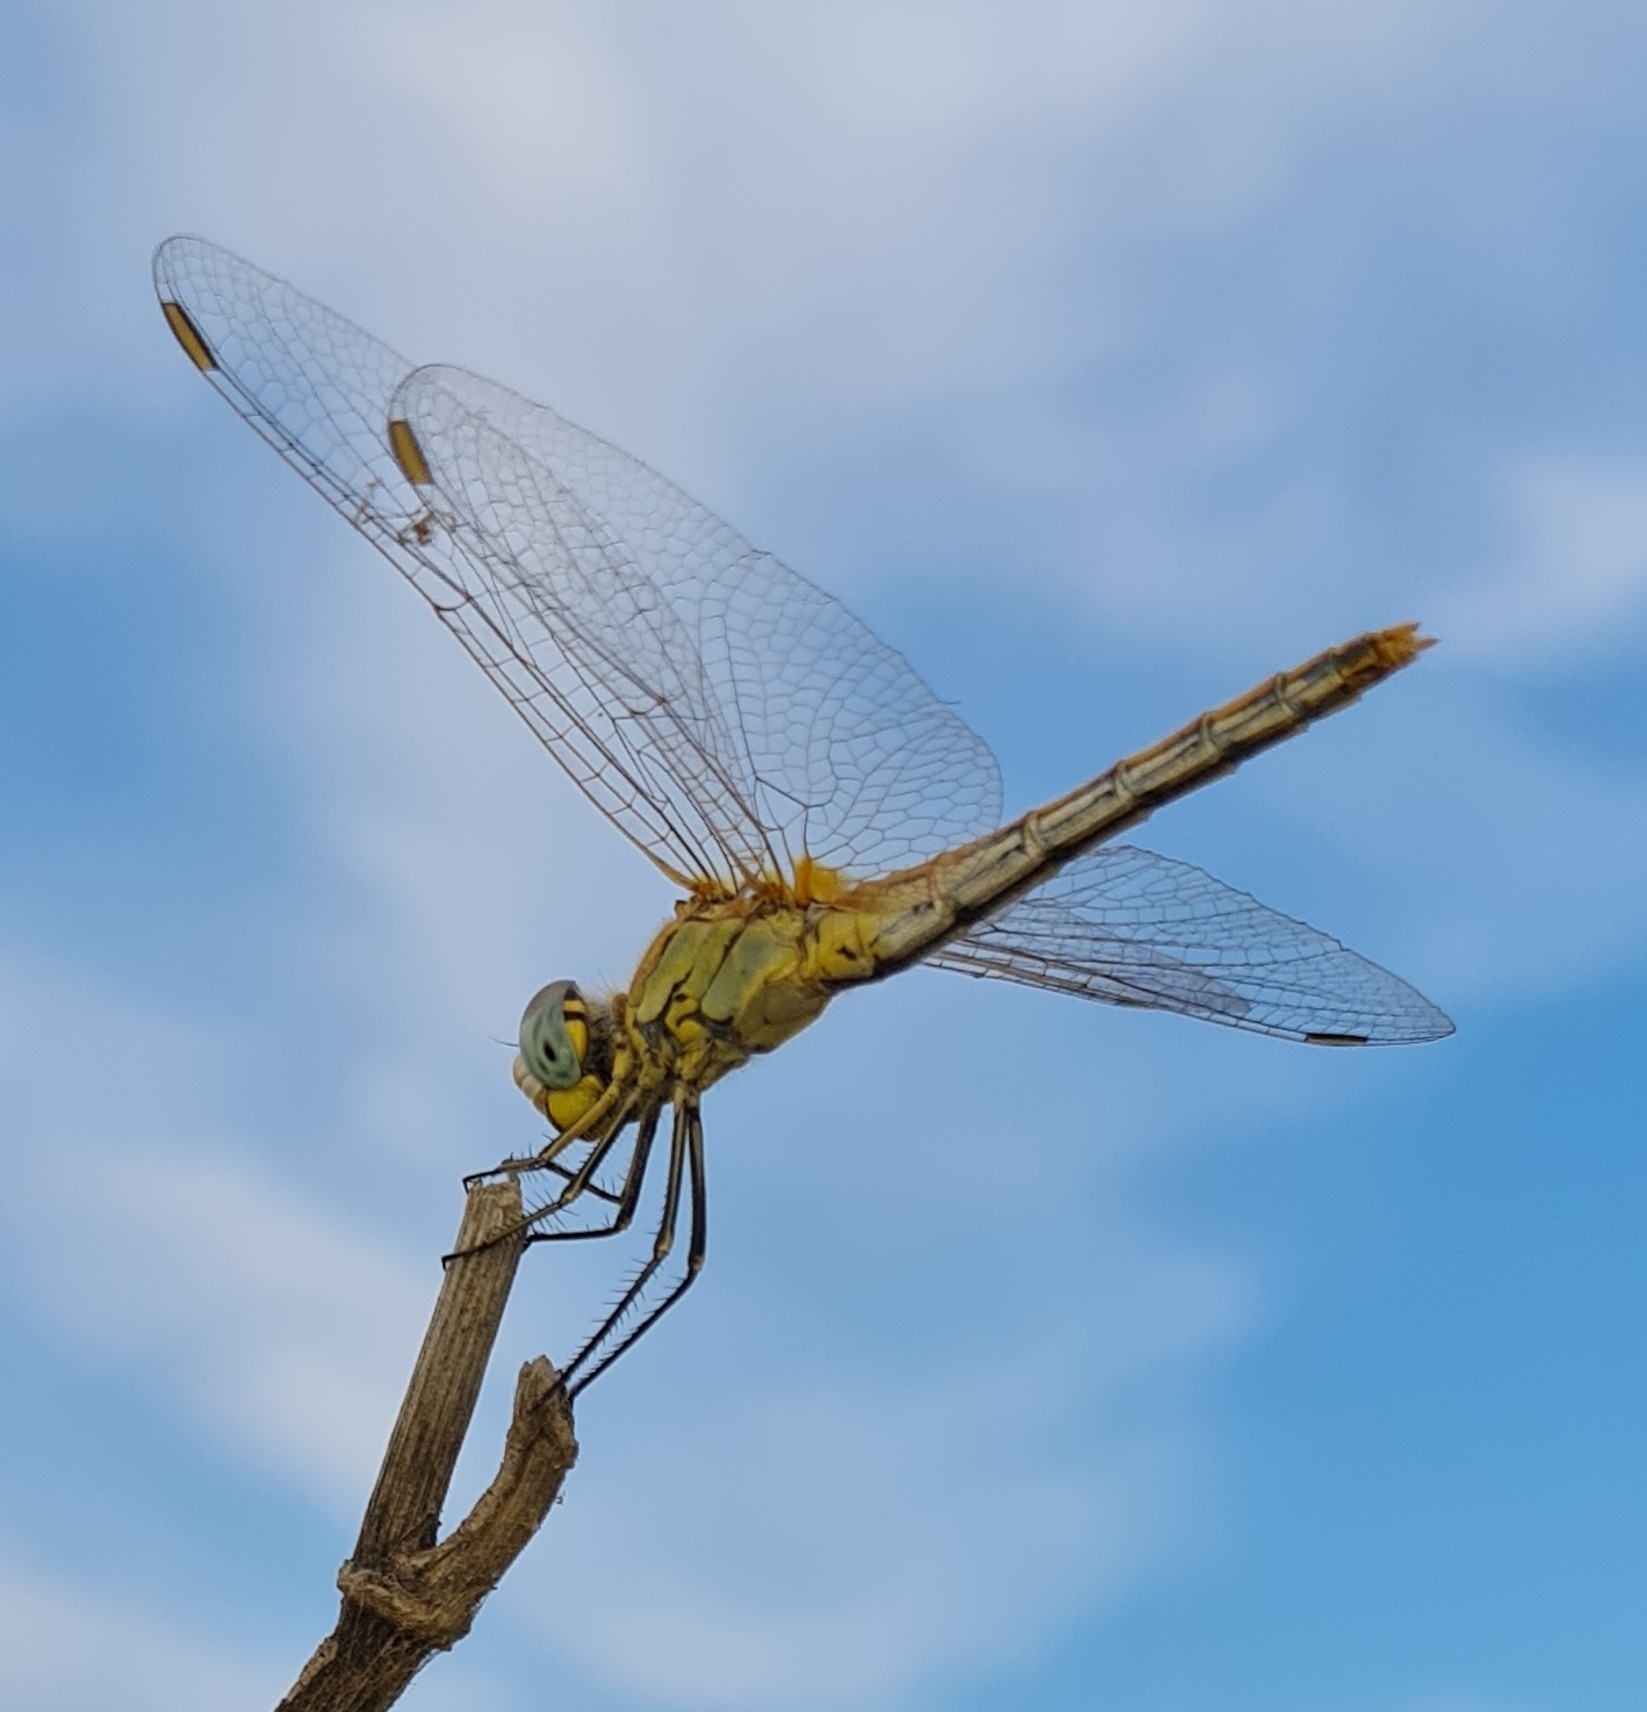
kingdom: Animalia
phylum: Arthropoda
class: Insecta
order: Odonata
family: Libellulidae
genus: Sympetrum
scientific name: Sympetrum fonscolombii
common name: Red-veined darter
